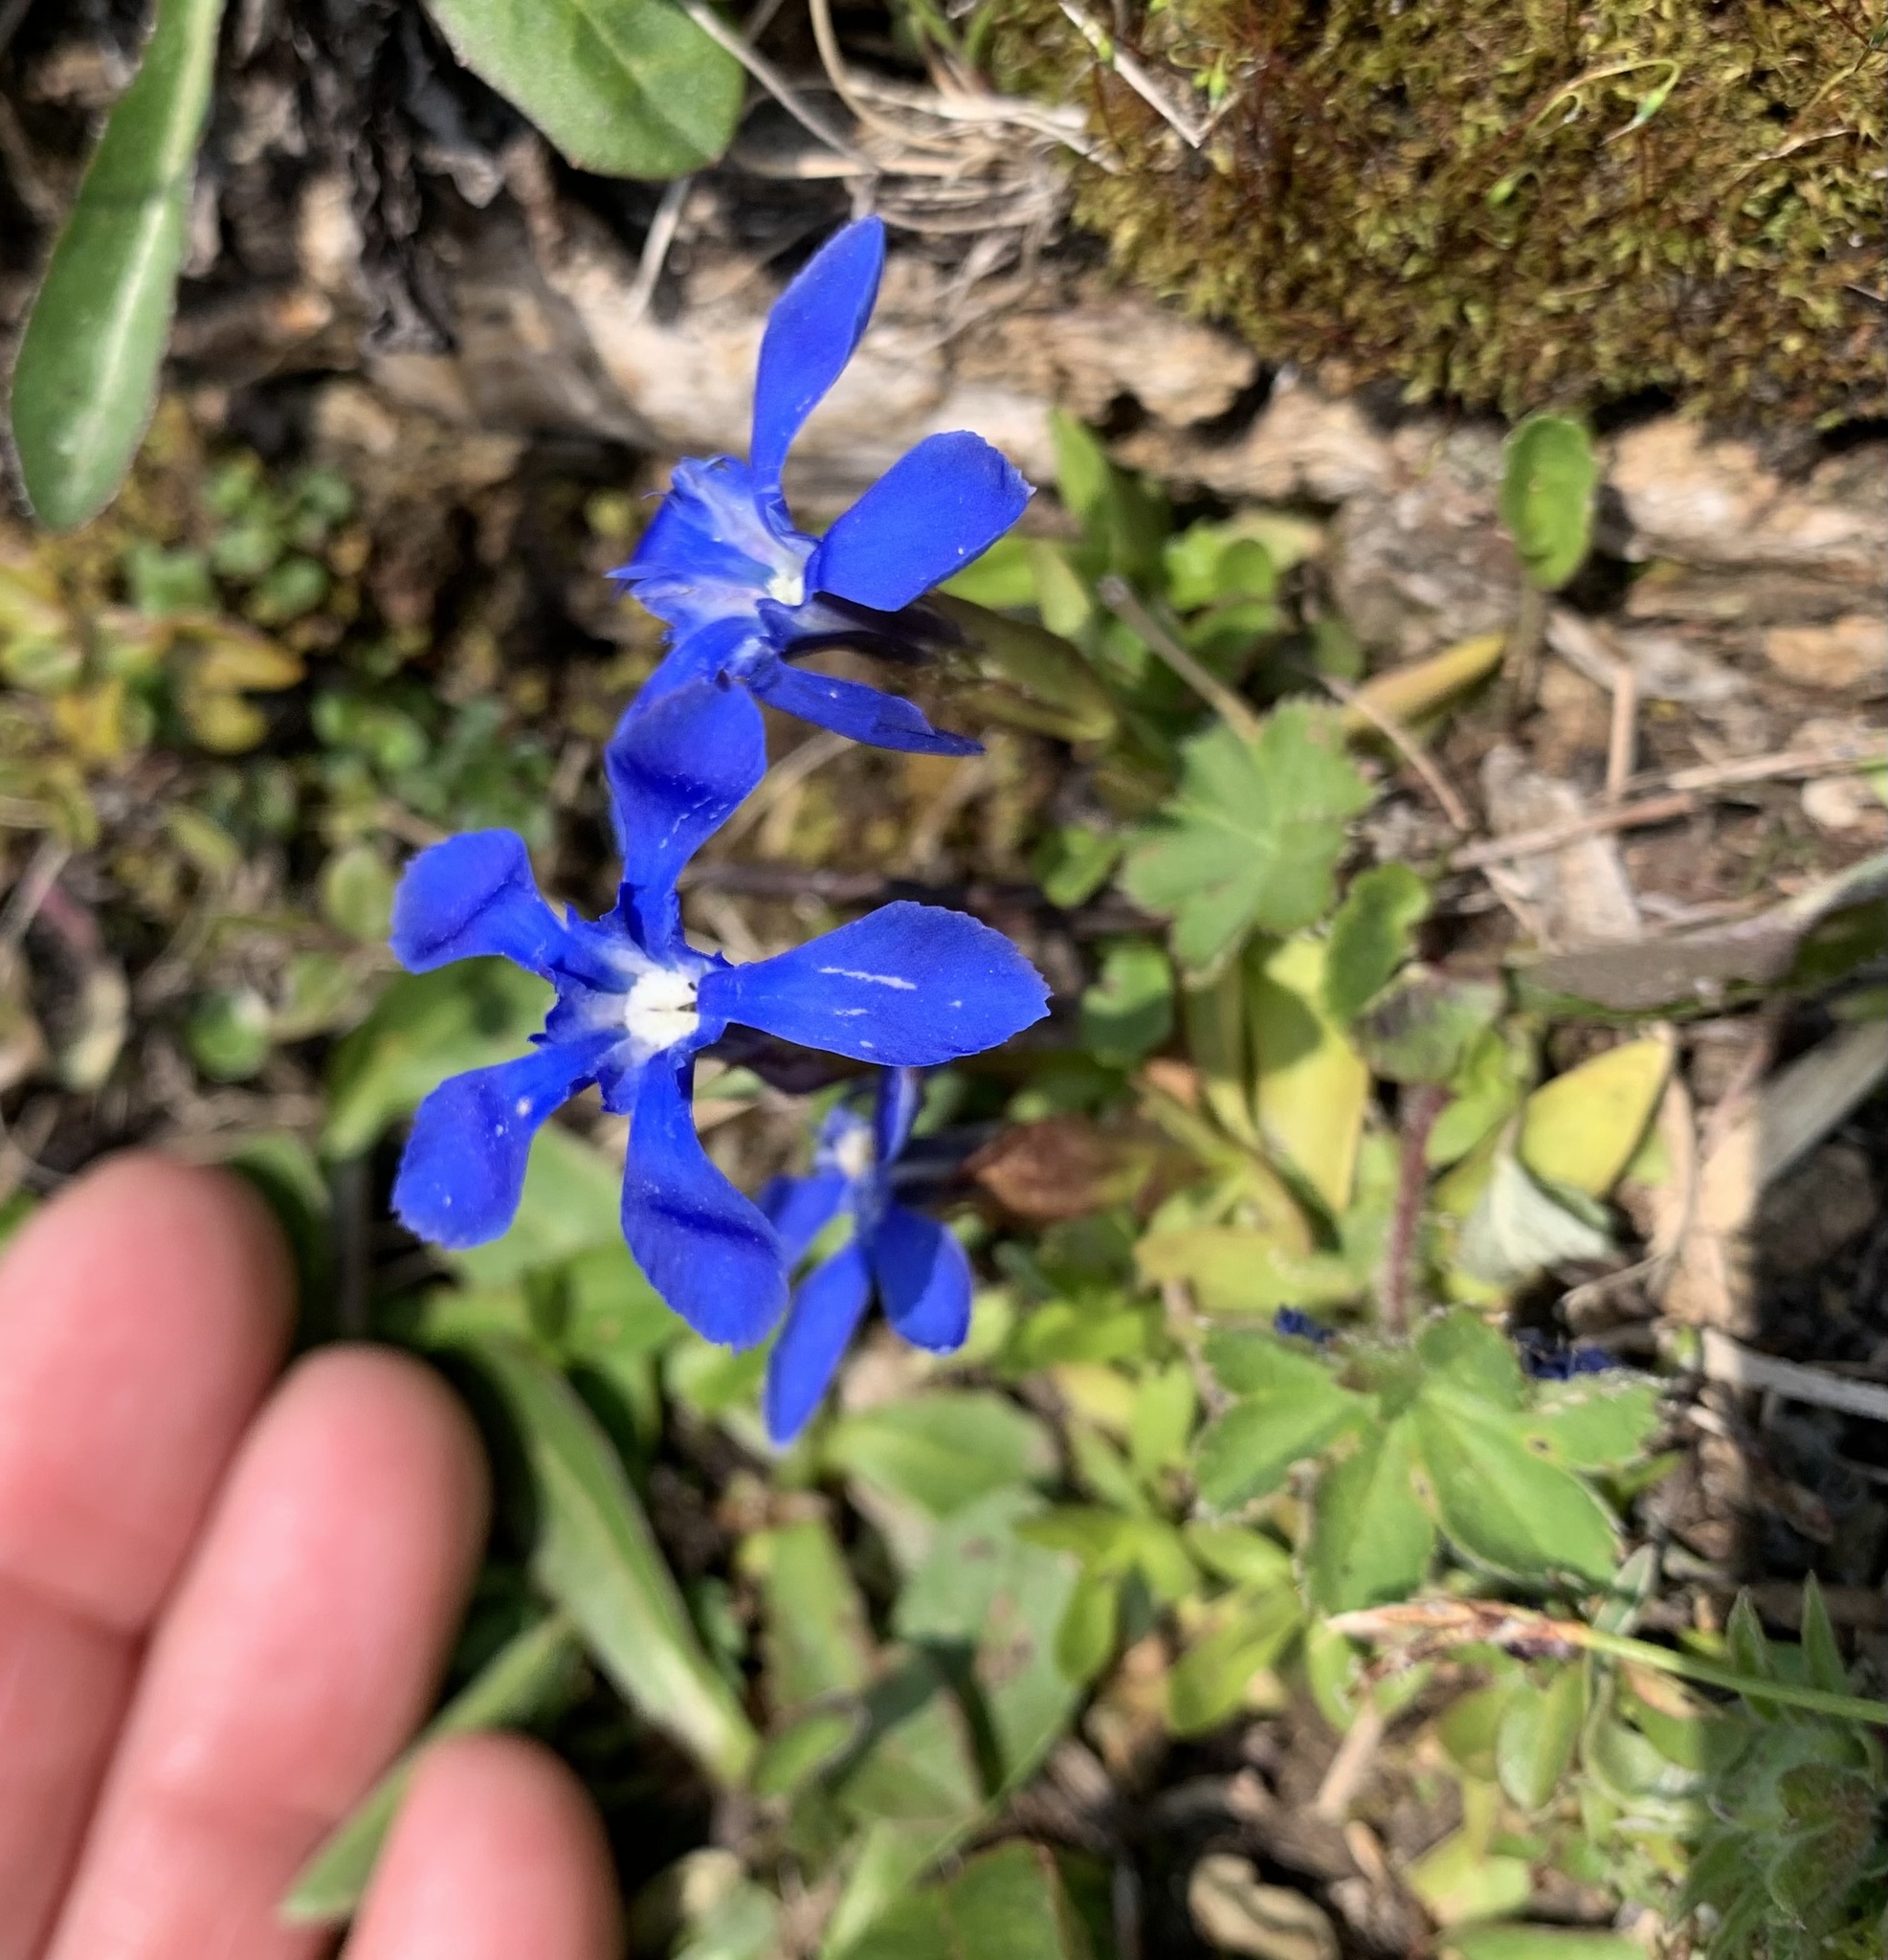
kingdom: Plantae
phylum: Tracheophyta
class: Magnoliopsida
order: Gentianales
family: Gentianaceae
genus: Gentiana
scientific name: Gentiana verna
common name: Spring gentian
